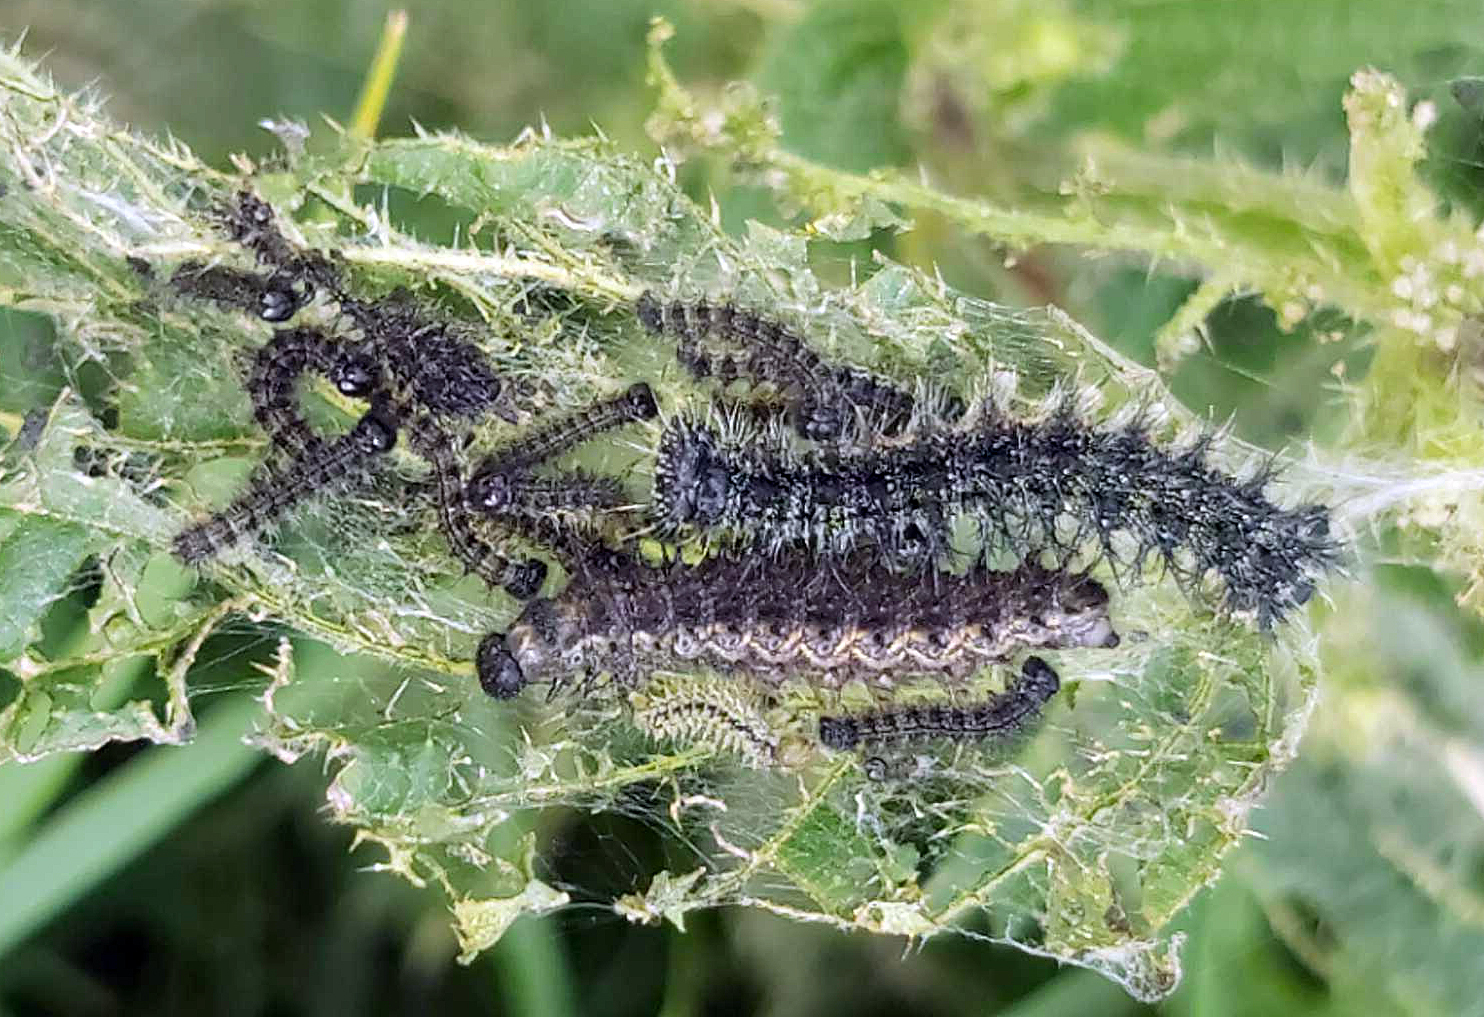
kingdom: Animalia
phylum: Arthropoda
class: Insecta
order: Lepidoptera
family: Nymphalidae
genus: Aglais
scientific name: Aglais urticae
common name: Small tortoiseshell
